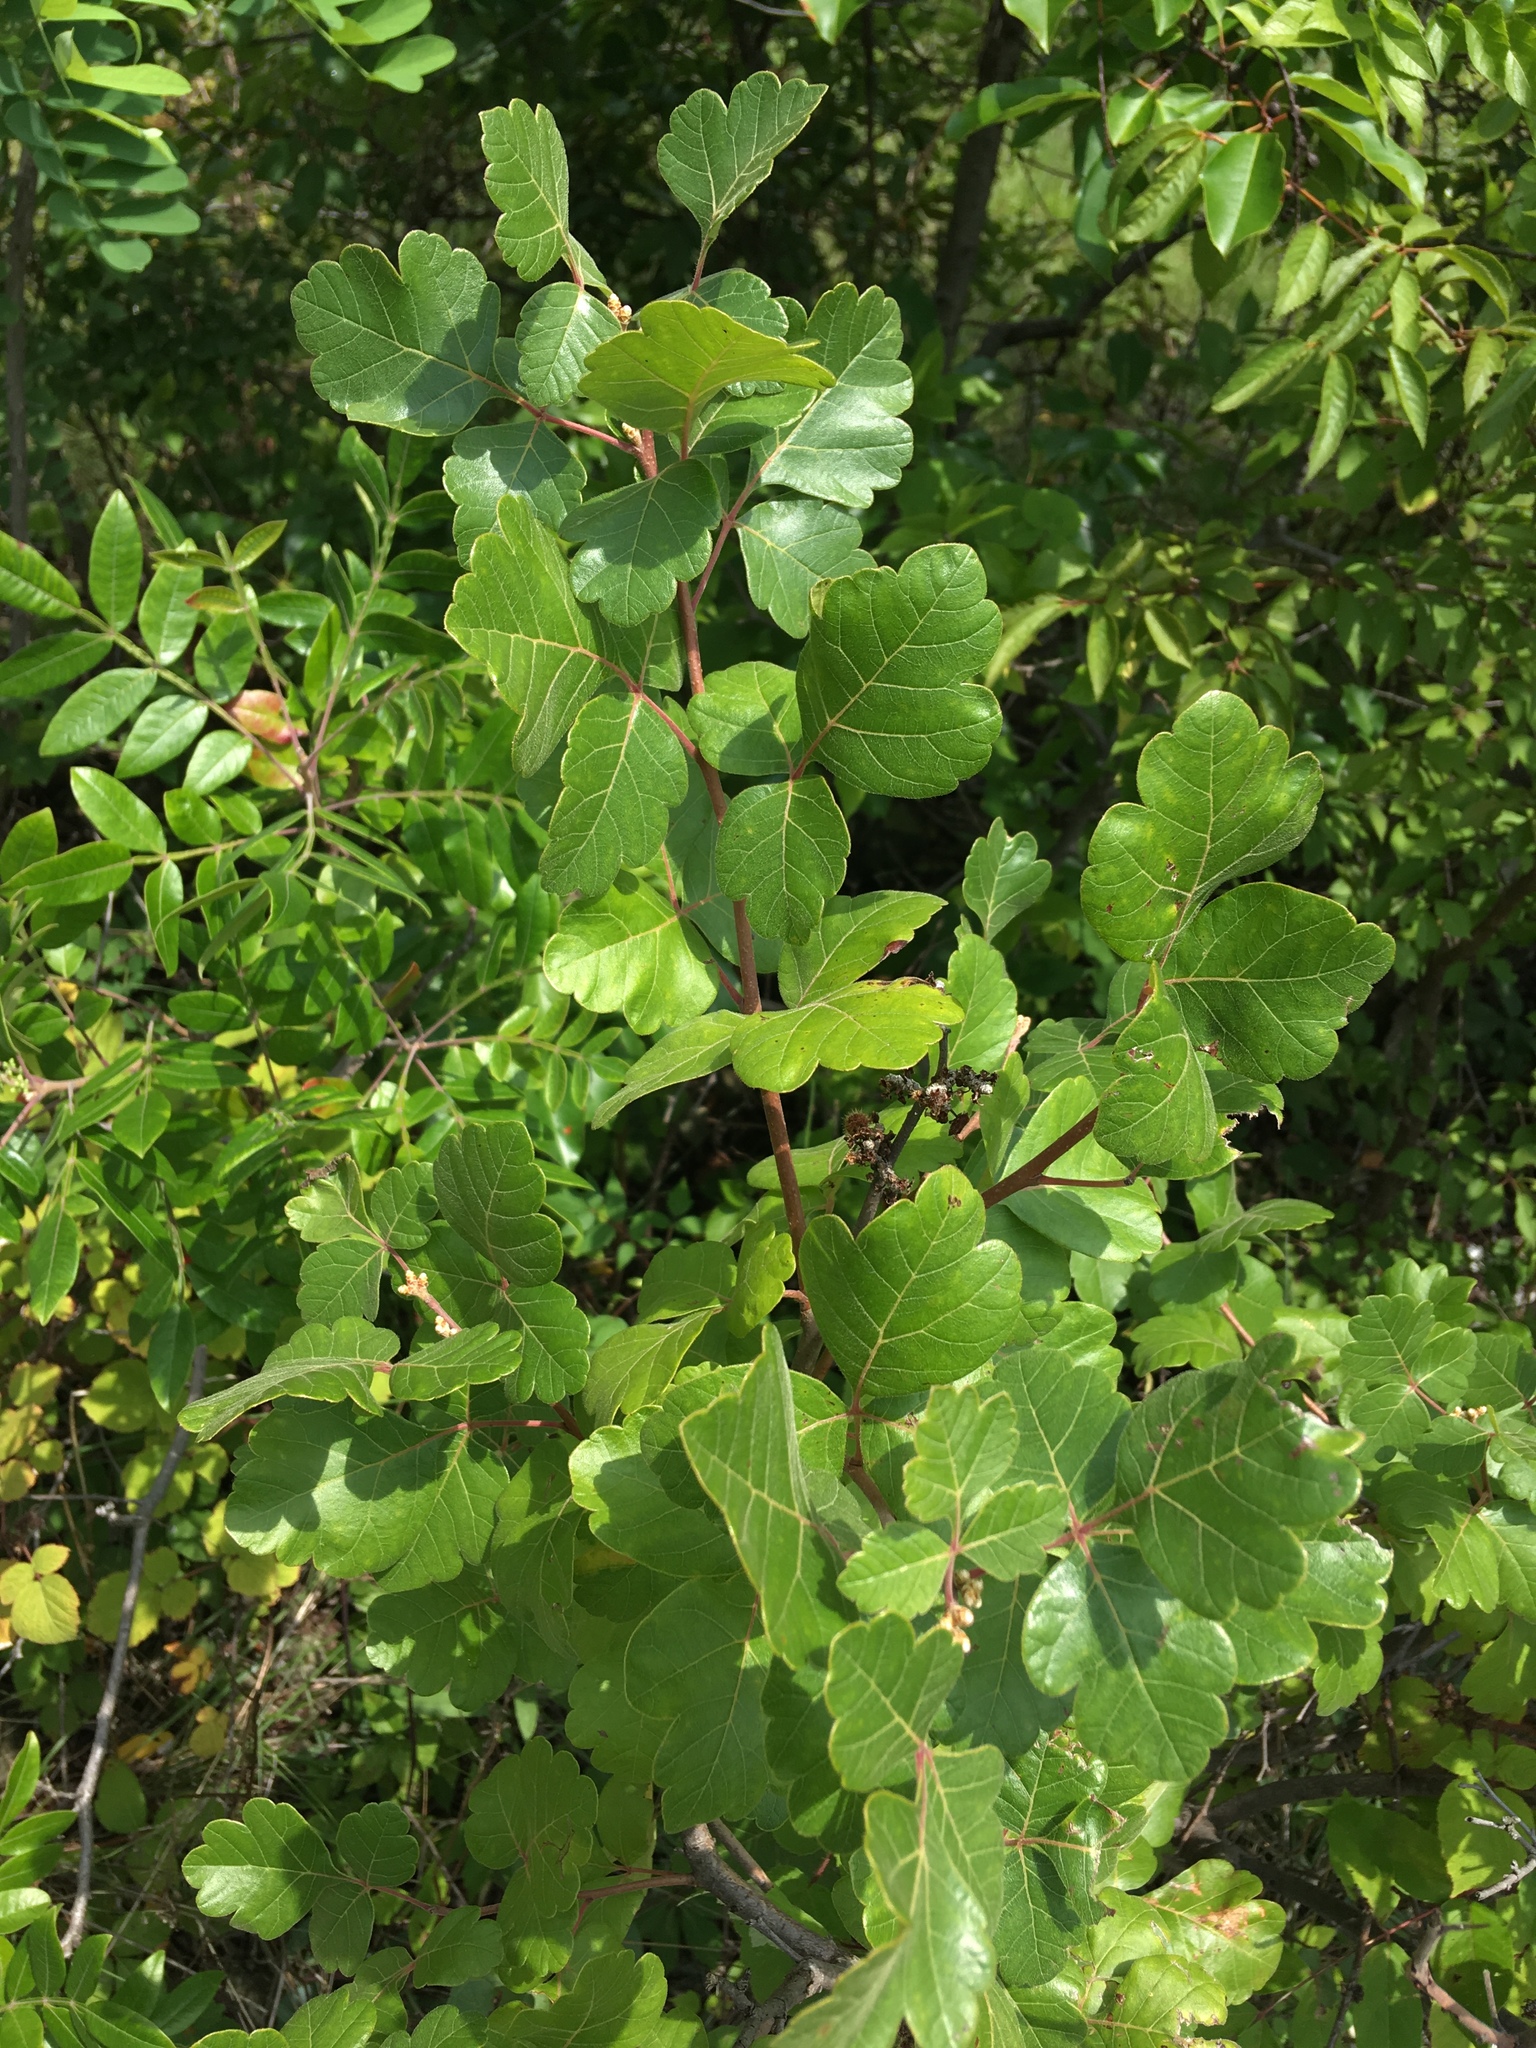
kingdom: Plantae
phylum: Tracheophyta
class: Magnoliopsida
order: Sapindales
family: Anacardiaceae
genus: Rhus
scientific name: Rhus aromatica
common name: Aromatic sumac
